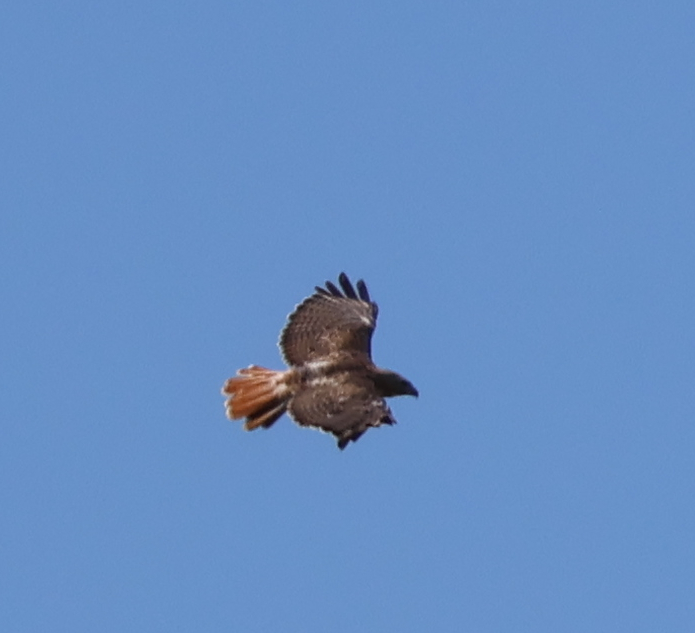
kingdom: Animalia
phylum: Chordata
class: Aves
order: Accipitriformes
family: Accipitridae
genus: Buteo
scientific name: Buteo jamaicensis
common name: Red-tailed hawk
